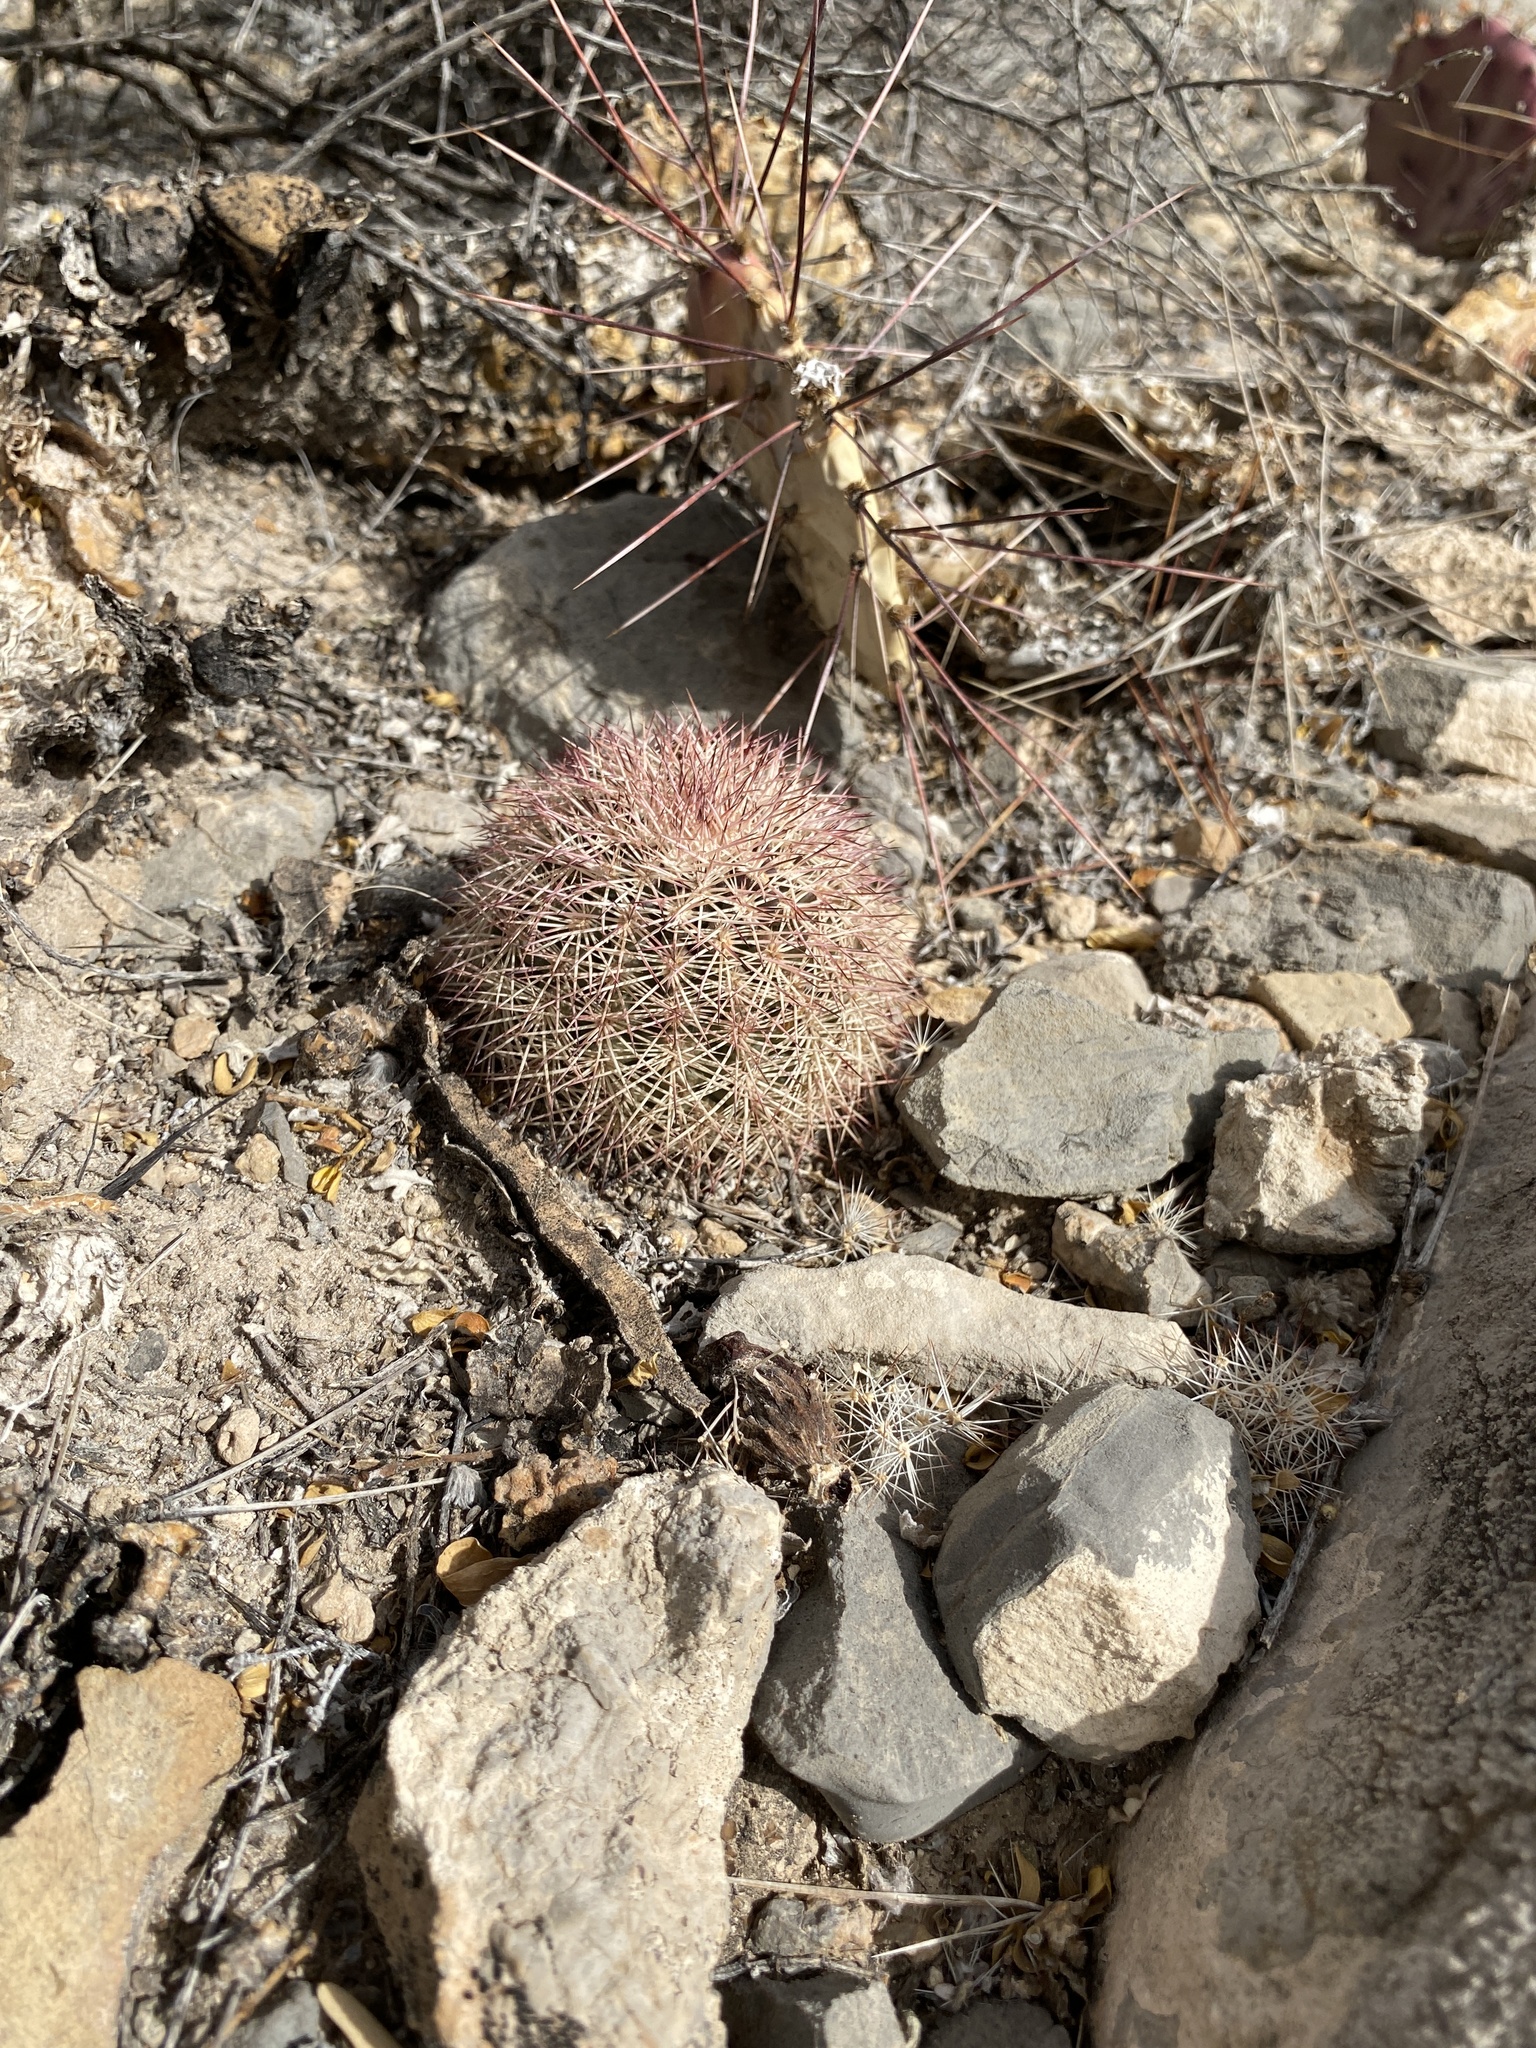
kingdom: Plantae
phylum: Tracheophyta
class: Magnoliopsida
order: Caryophyllales
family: Cactaceae
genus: Echinocereus
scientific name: Echinocereus dasyacanthus
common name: Spiny hedgehog cactus
